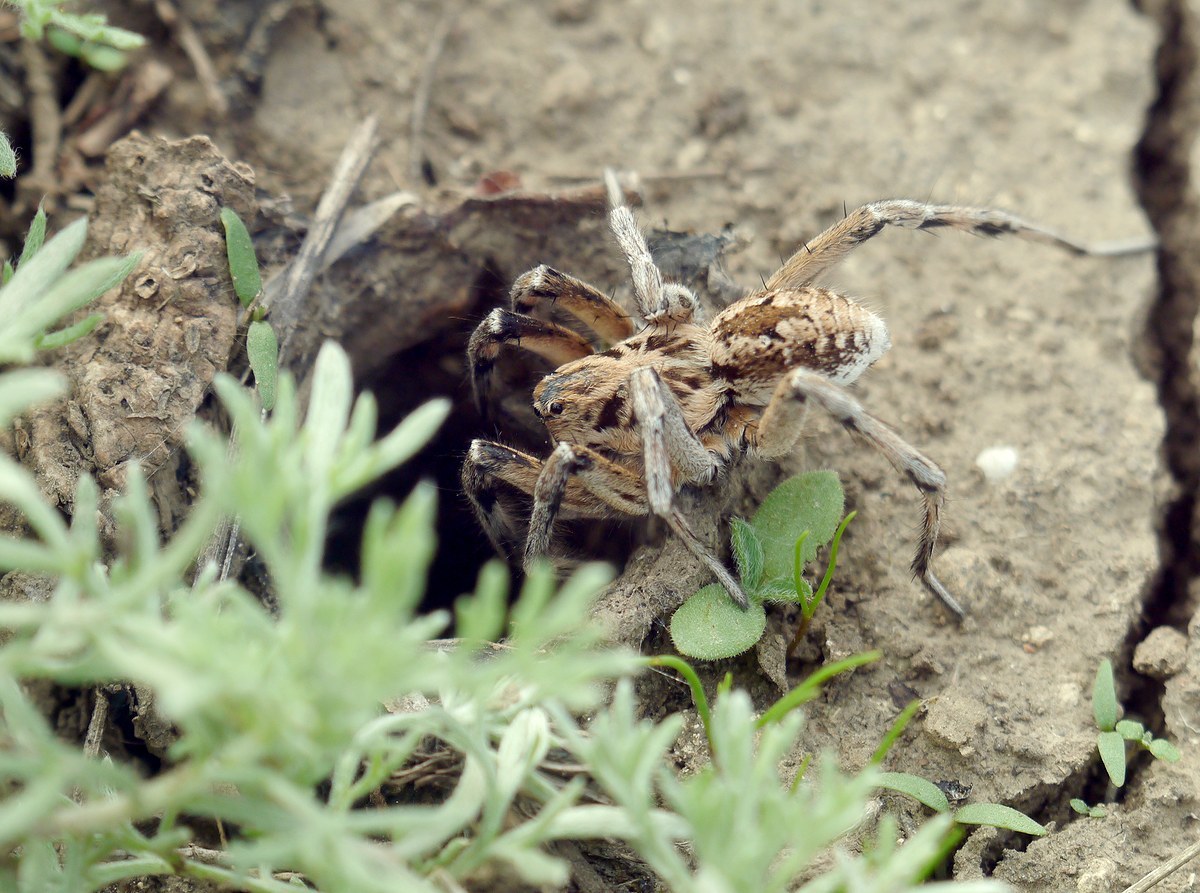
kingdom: Animalia
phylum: Arthropoda
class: Arachnida
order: Araneae
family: Lycosidae
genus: Geolycosa
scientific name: Geolycosa vultuosa
